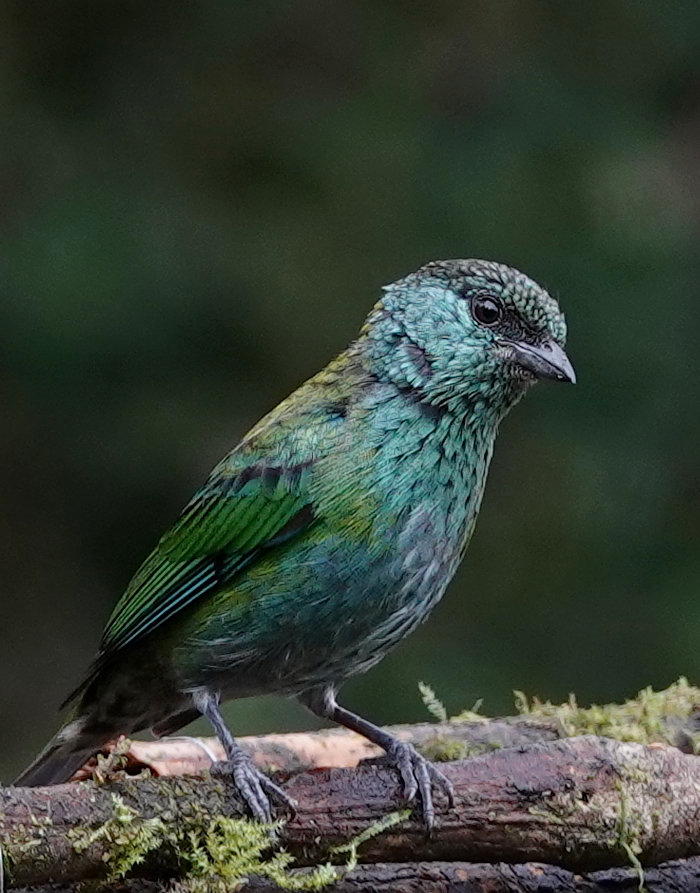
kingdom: Animalia
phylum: Chordata
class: Aves
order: Passeriformes
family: Thraupidae
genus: Stilpnia
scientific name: Stilpnia heinei
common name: Black-capped tanager
